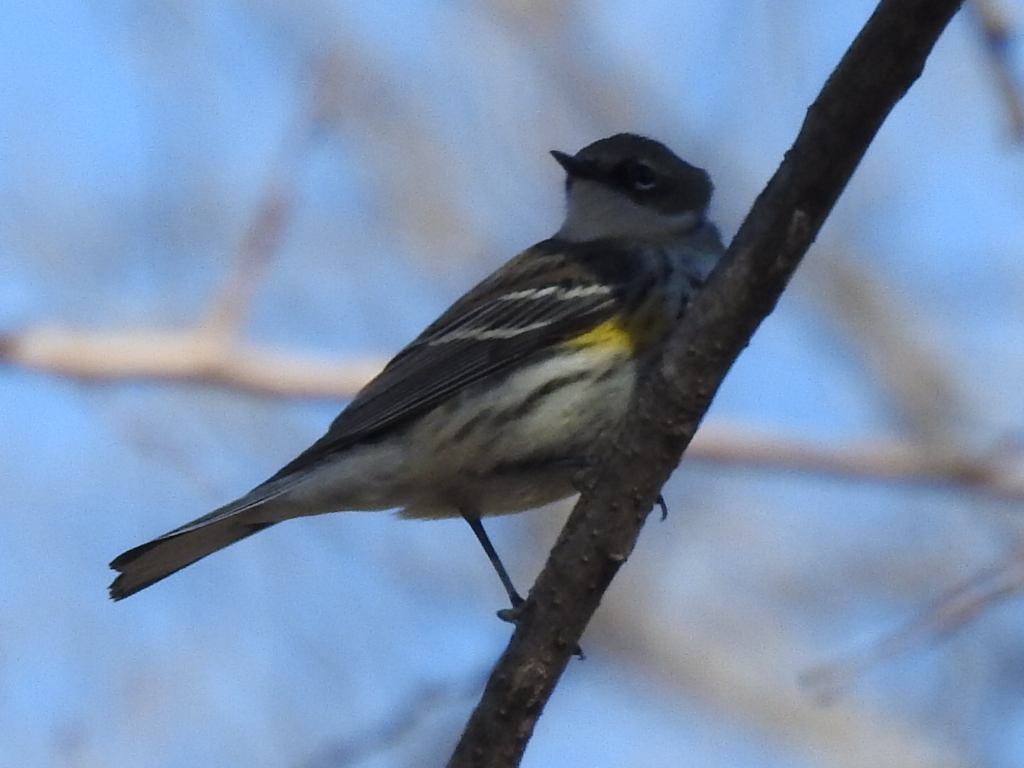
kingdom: Animalia
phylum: Chordata
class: Aves
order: Passeriformes
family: Parulidae
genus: Setophaga
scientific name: Setophaga coronata
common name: Myrtle warbler
